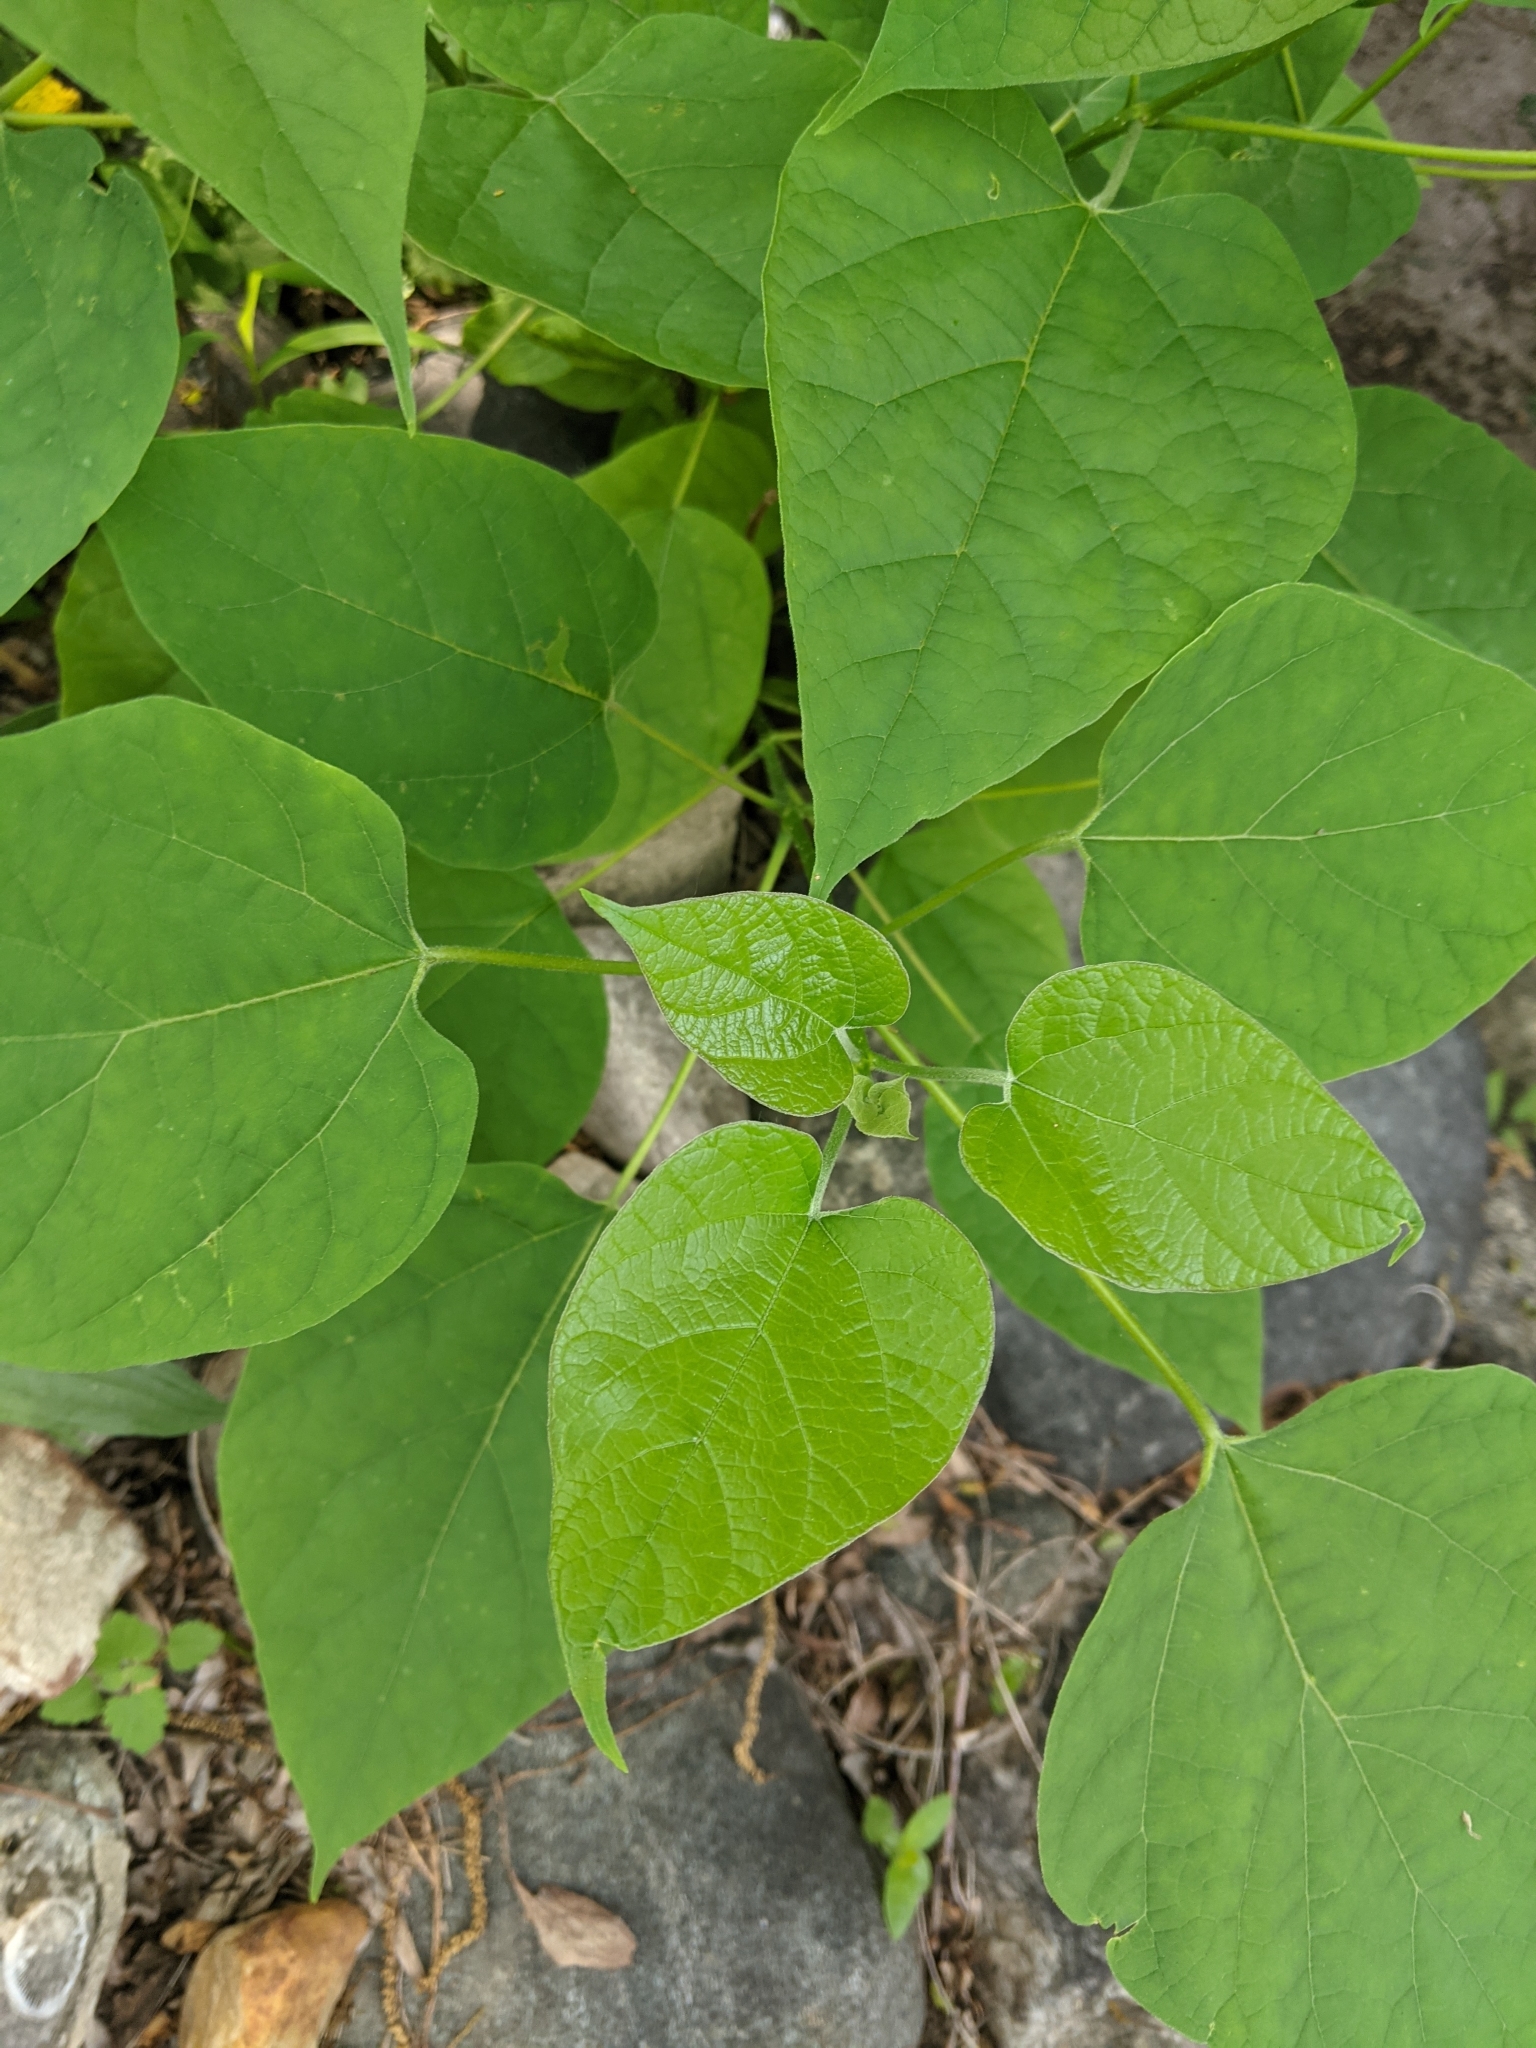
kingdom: Plantae
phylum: Tracheophyta
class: Magnoliopsida
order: Lamiales
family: Bignoniaceae
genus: Catalpa
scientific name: Catalpa speciosa
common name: Northern catalpa
